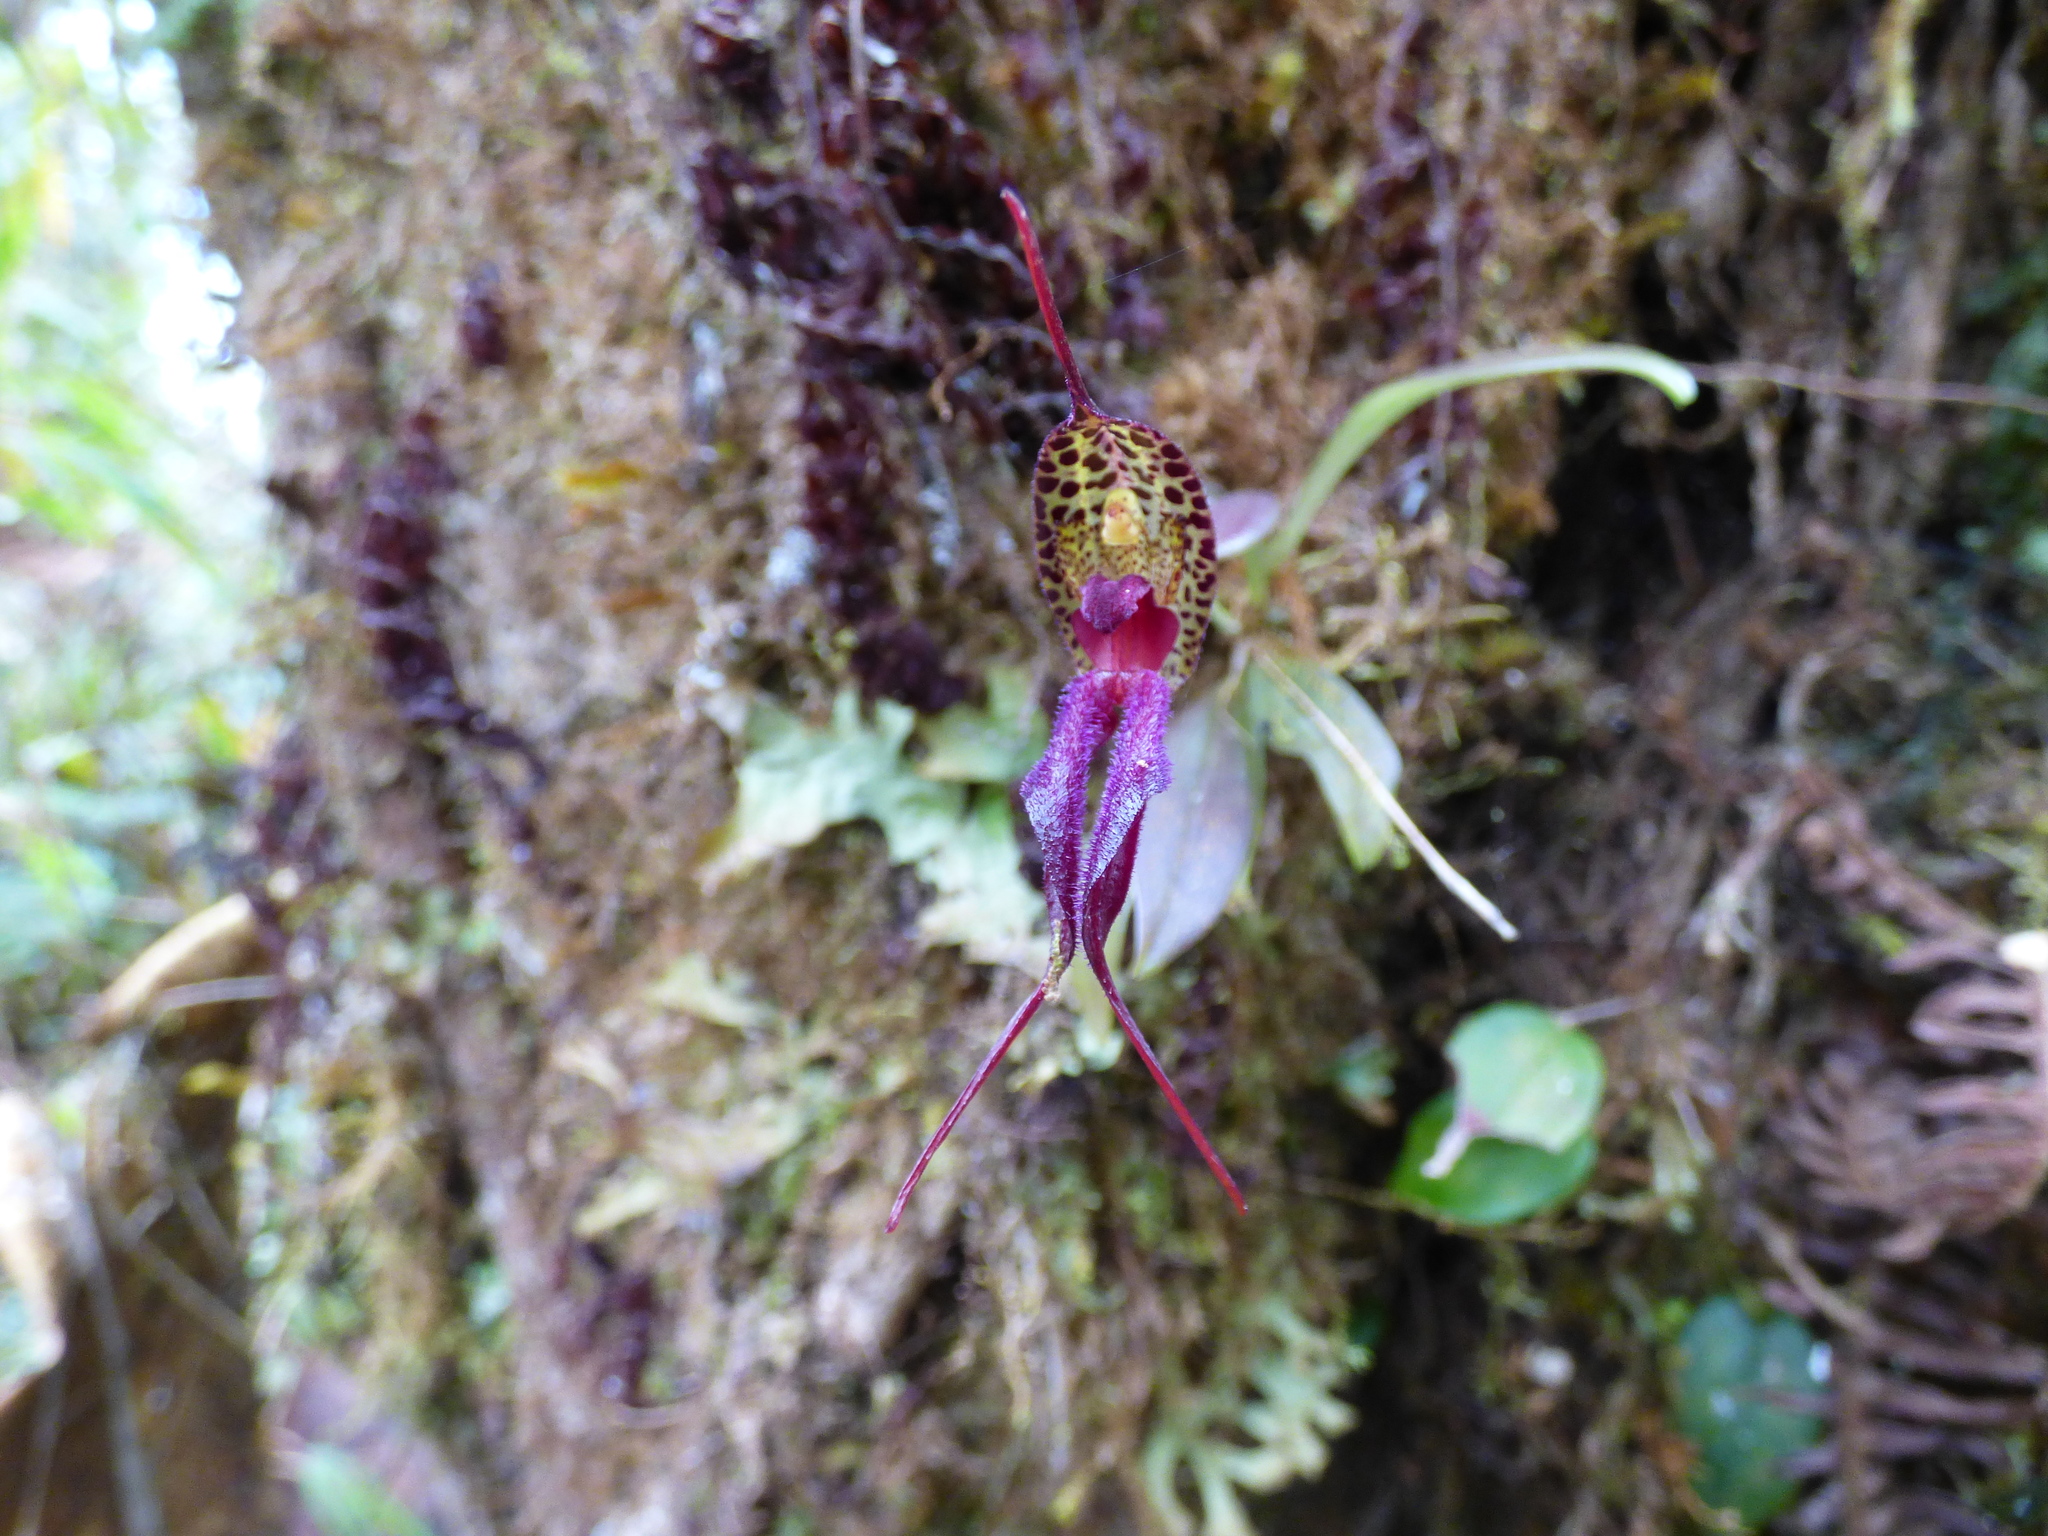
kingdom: Plantae
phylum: Tracheophyta
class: Liliopsida
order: Asparagales
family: Orchidaceae
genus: Masdevallia
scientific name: Masdevallia heteroptera
